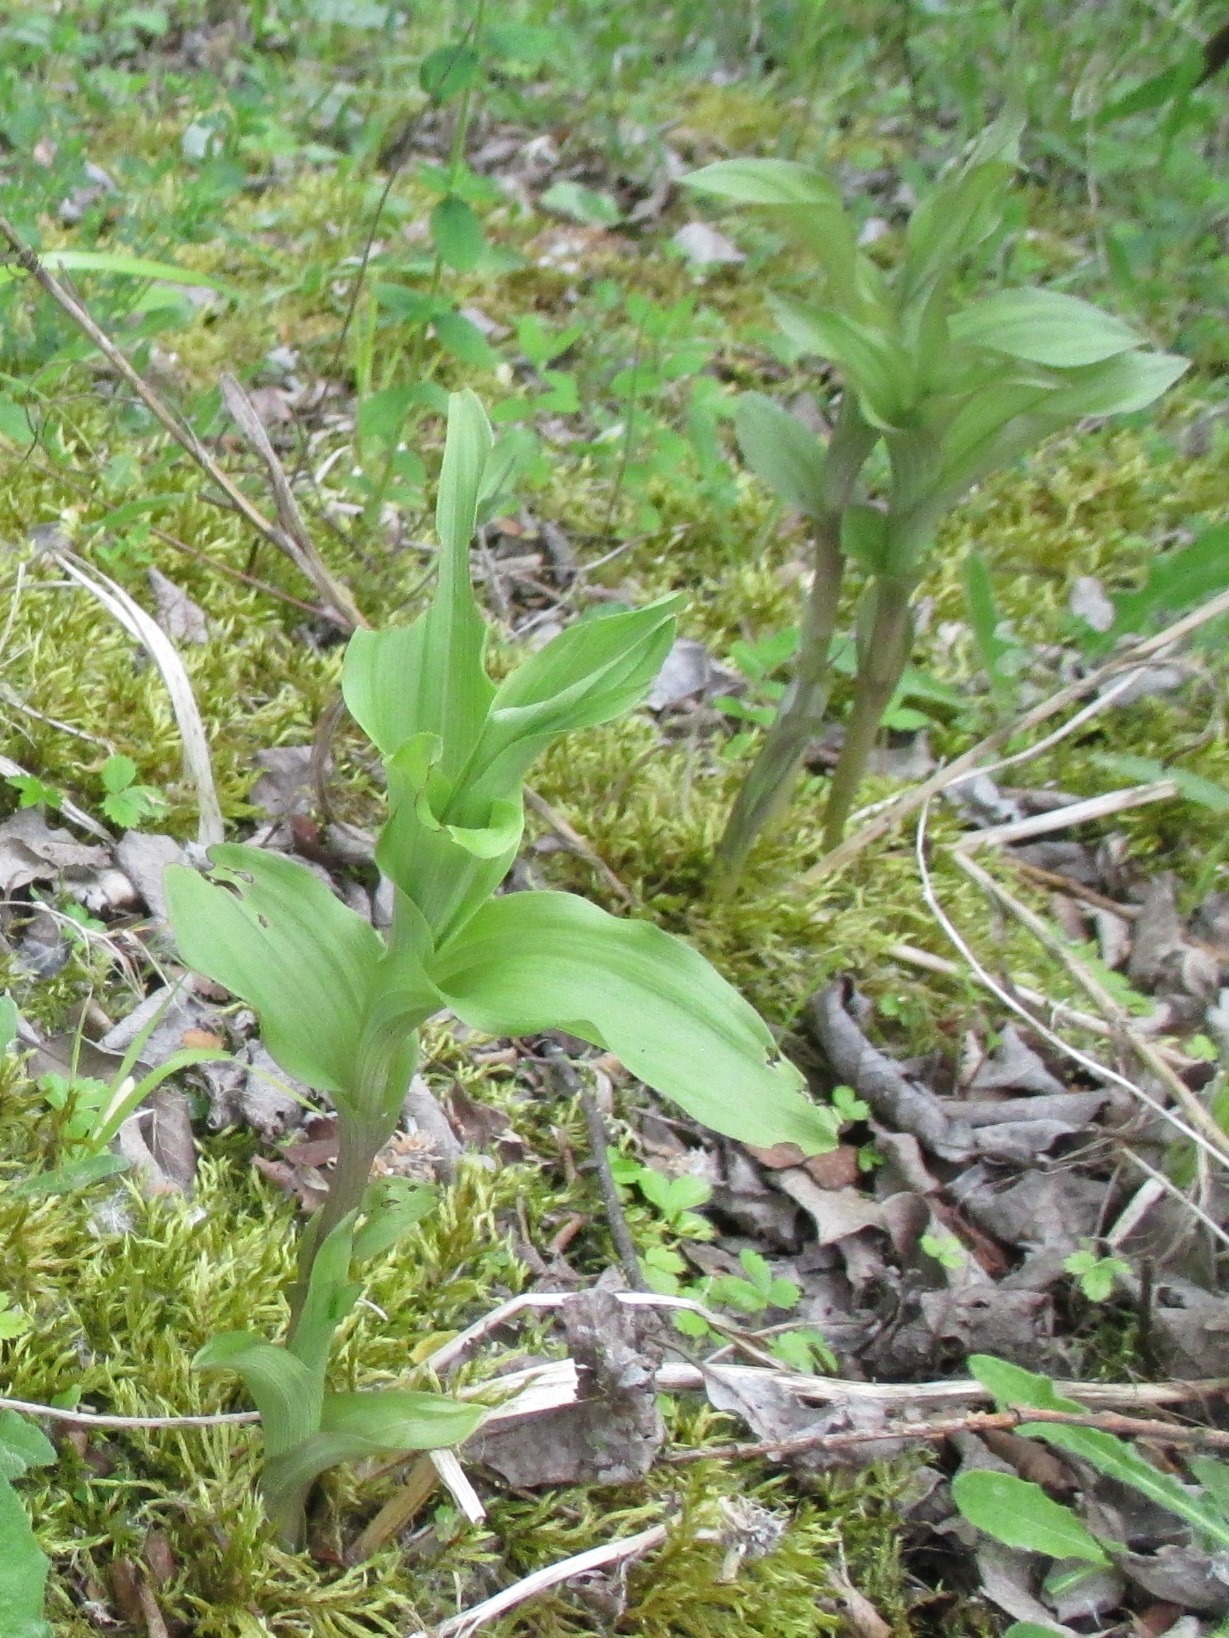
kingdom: Plantae
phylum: Tracheophyta
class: Liliopsida
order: Asparagales
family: Orchidaceae
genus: Epipactis
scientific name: Epipactis helleborine
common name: Broad-leaved helleborine
